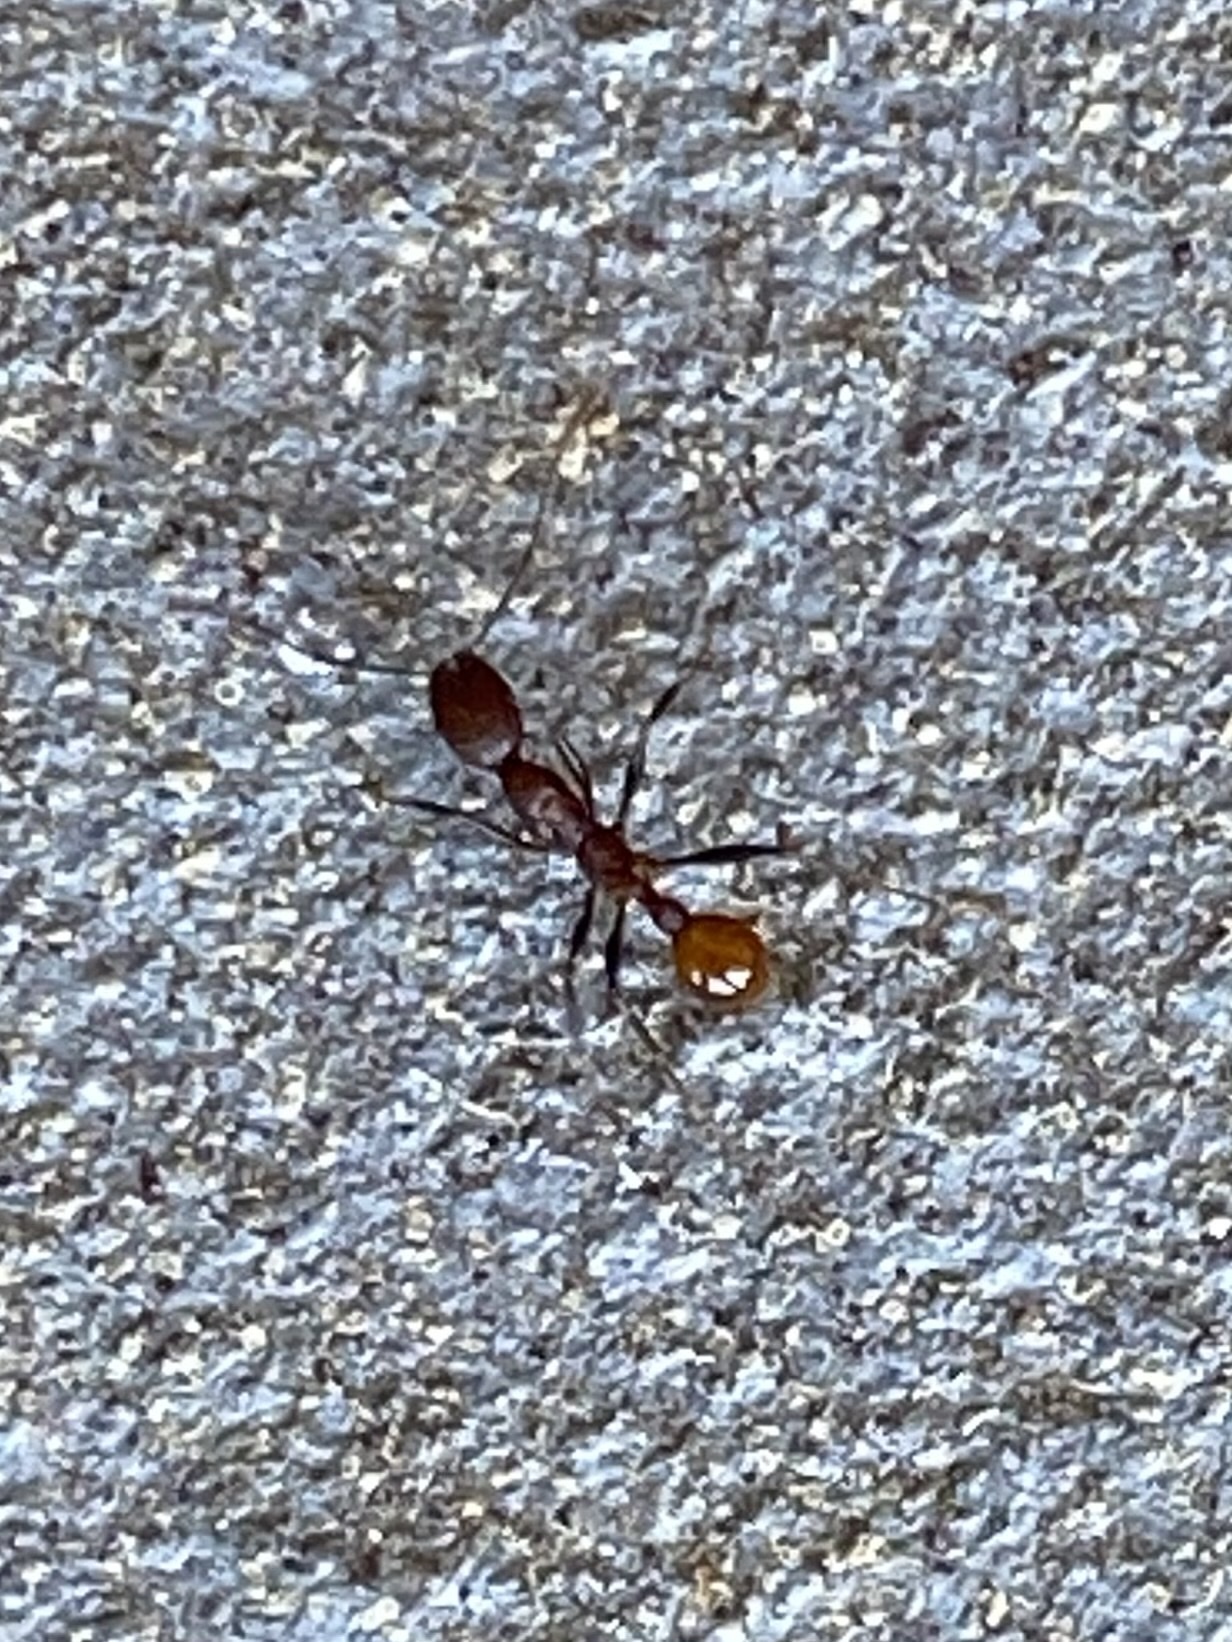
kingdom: Animalia
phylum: Arthropoda
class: Insecta
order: Hymenoptera
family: Formicidae
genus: Aphaenogaster
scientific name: Aphaenogaster lamellidens
